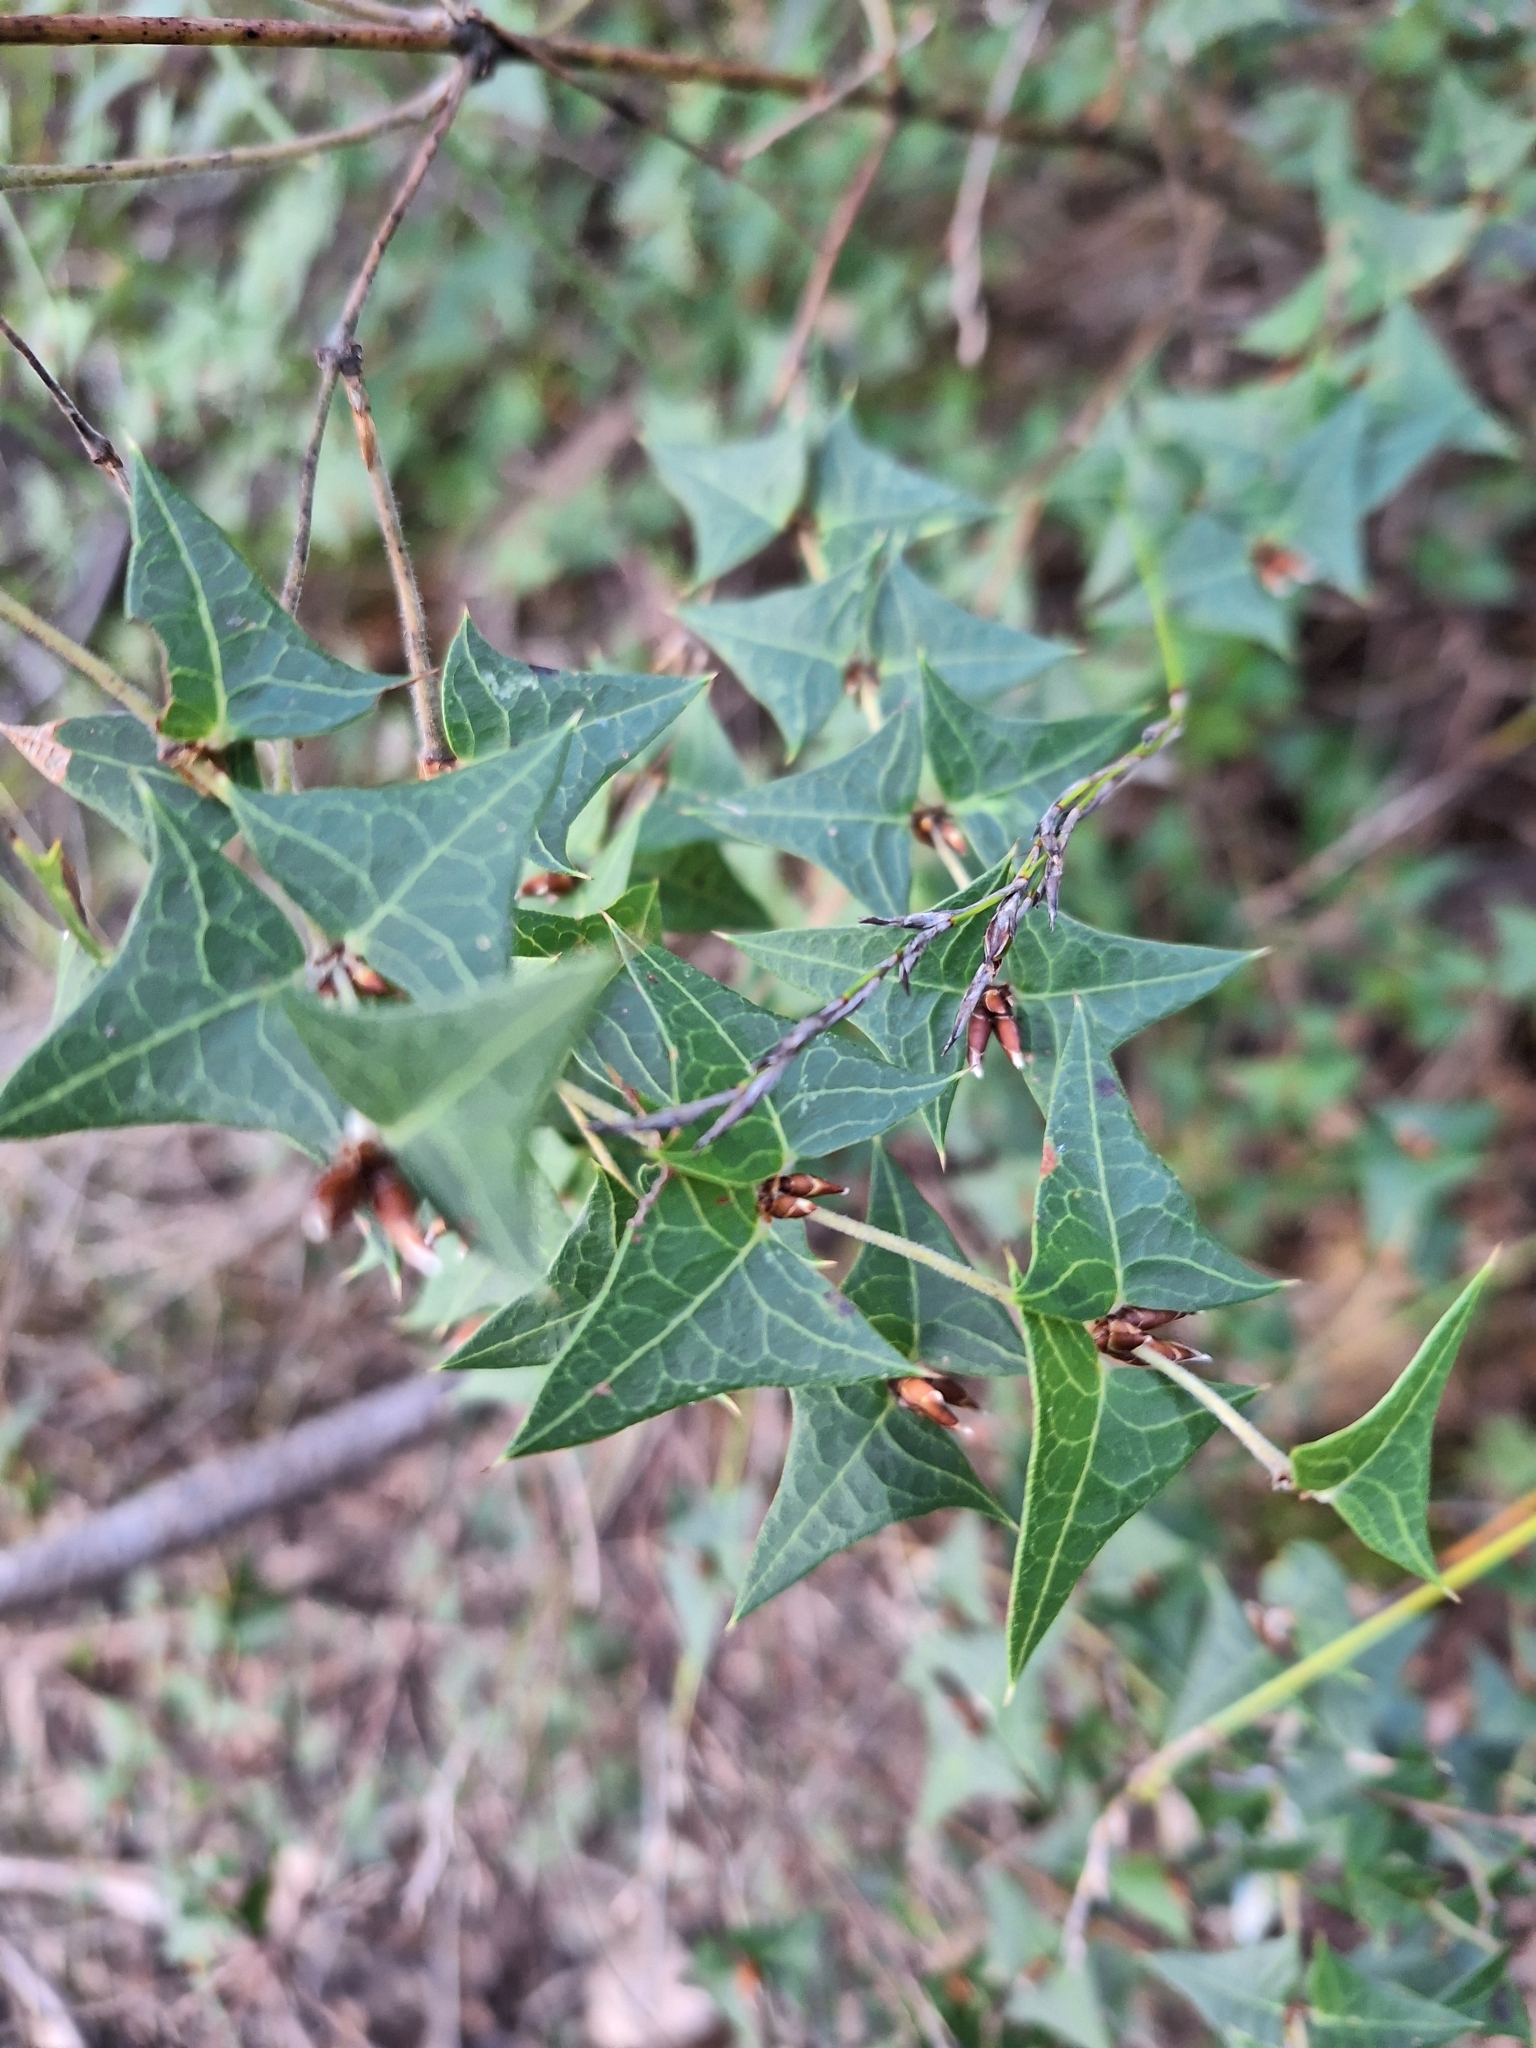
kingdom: Plantae
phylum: Tracheophyta
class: Magnoliopsida
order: Fabales
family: Fabaceae
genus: Platylobium
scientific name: Platylobium obtusangulum
